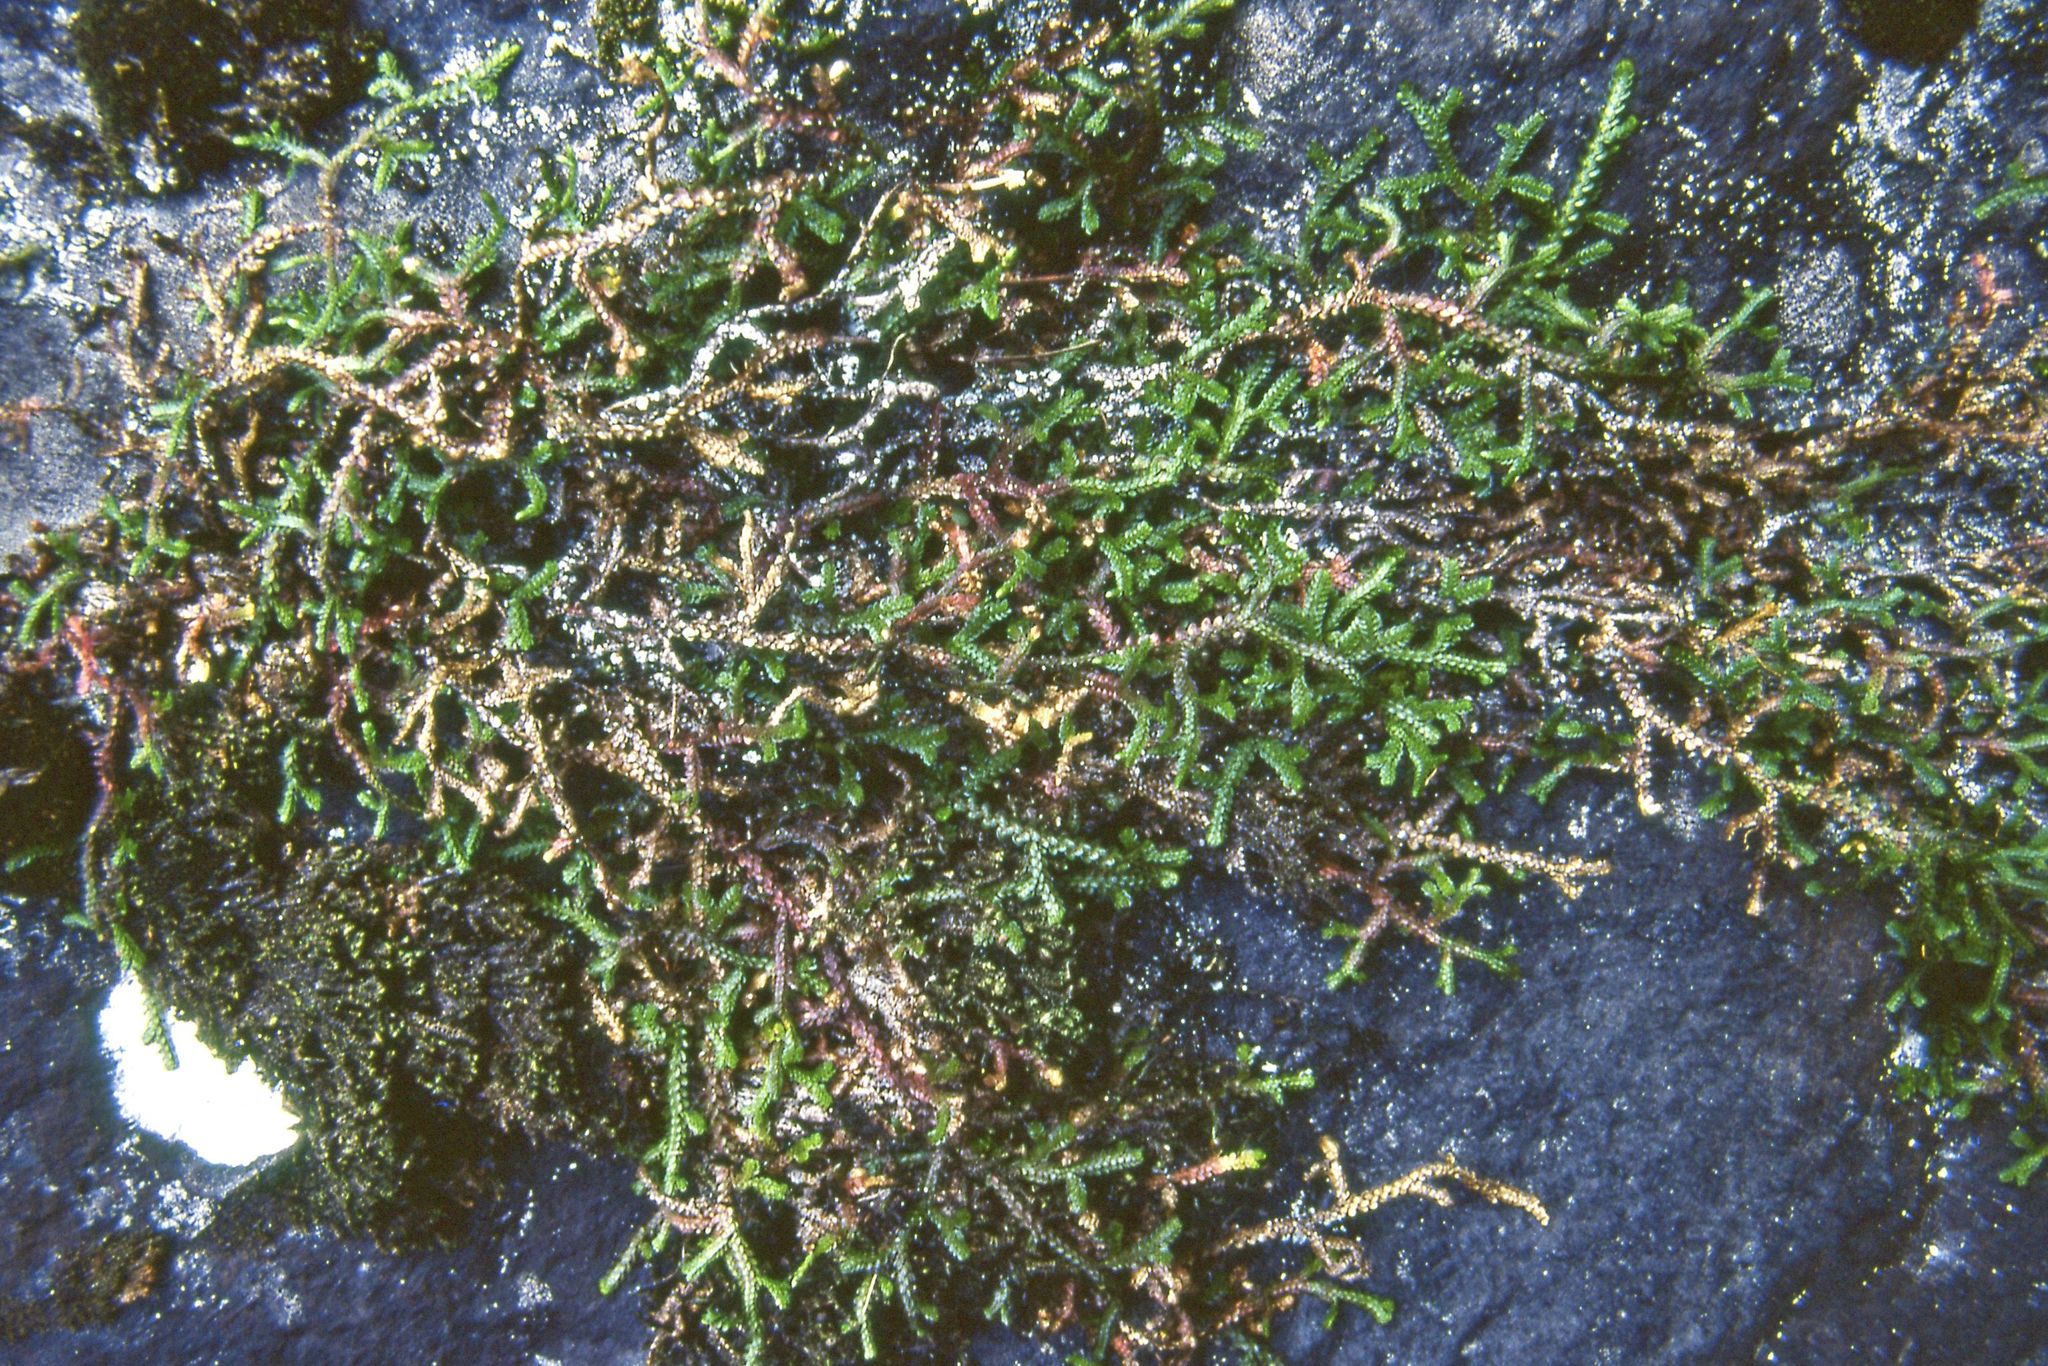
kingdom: Plantae
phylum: Tracheophyta
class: Lycopodiopsida
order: Selaginellales
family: Selaginellaceae
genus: Selaginella
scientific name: Selaginella douglasii
